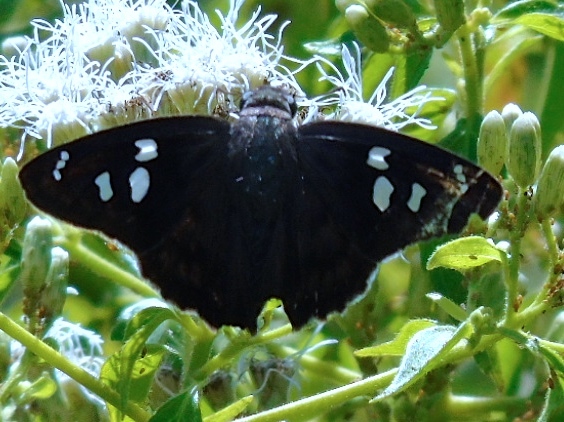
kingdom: Animalia
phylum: Arthropoda
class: Insecta
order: Lepidoptera
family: Hesperiidae
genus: Polygonus
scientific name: Polygonus leo
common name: Hammoch skipper
